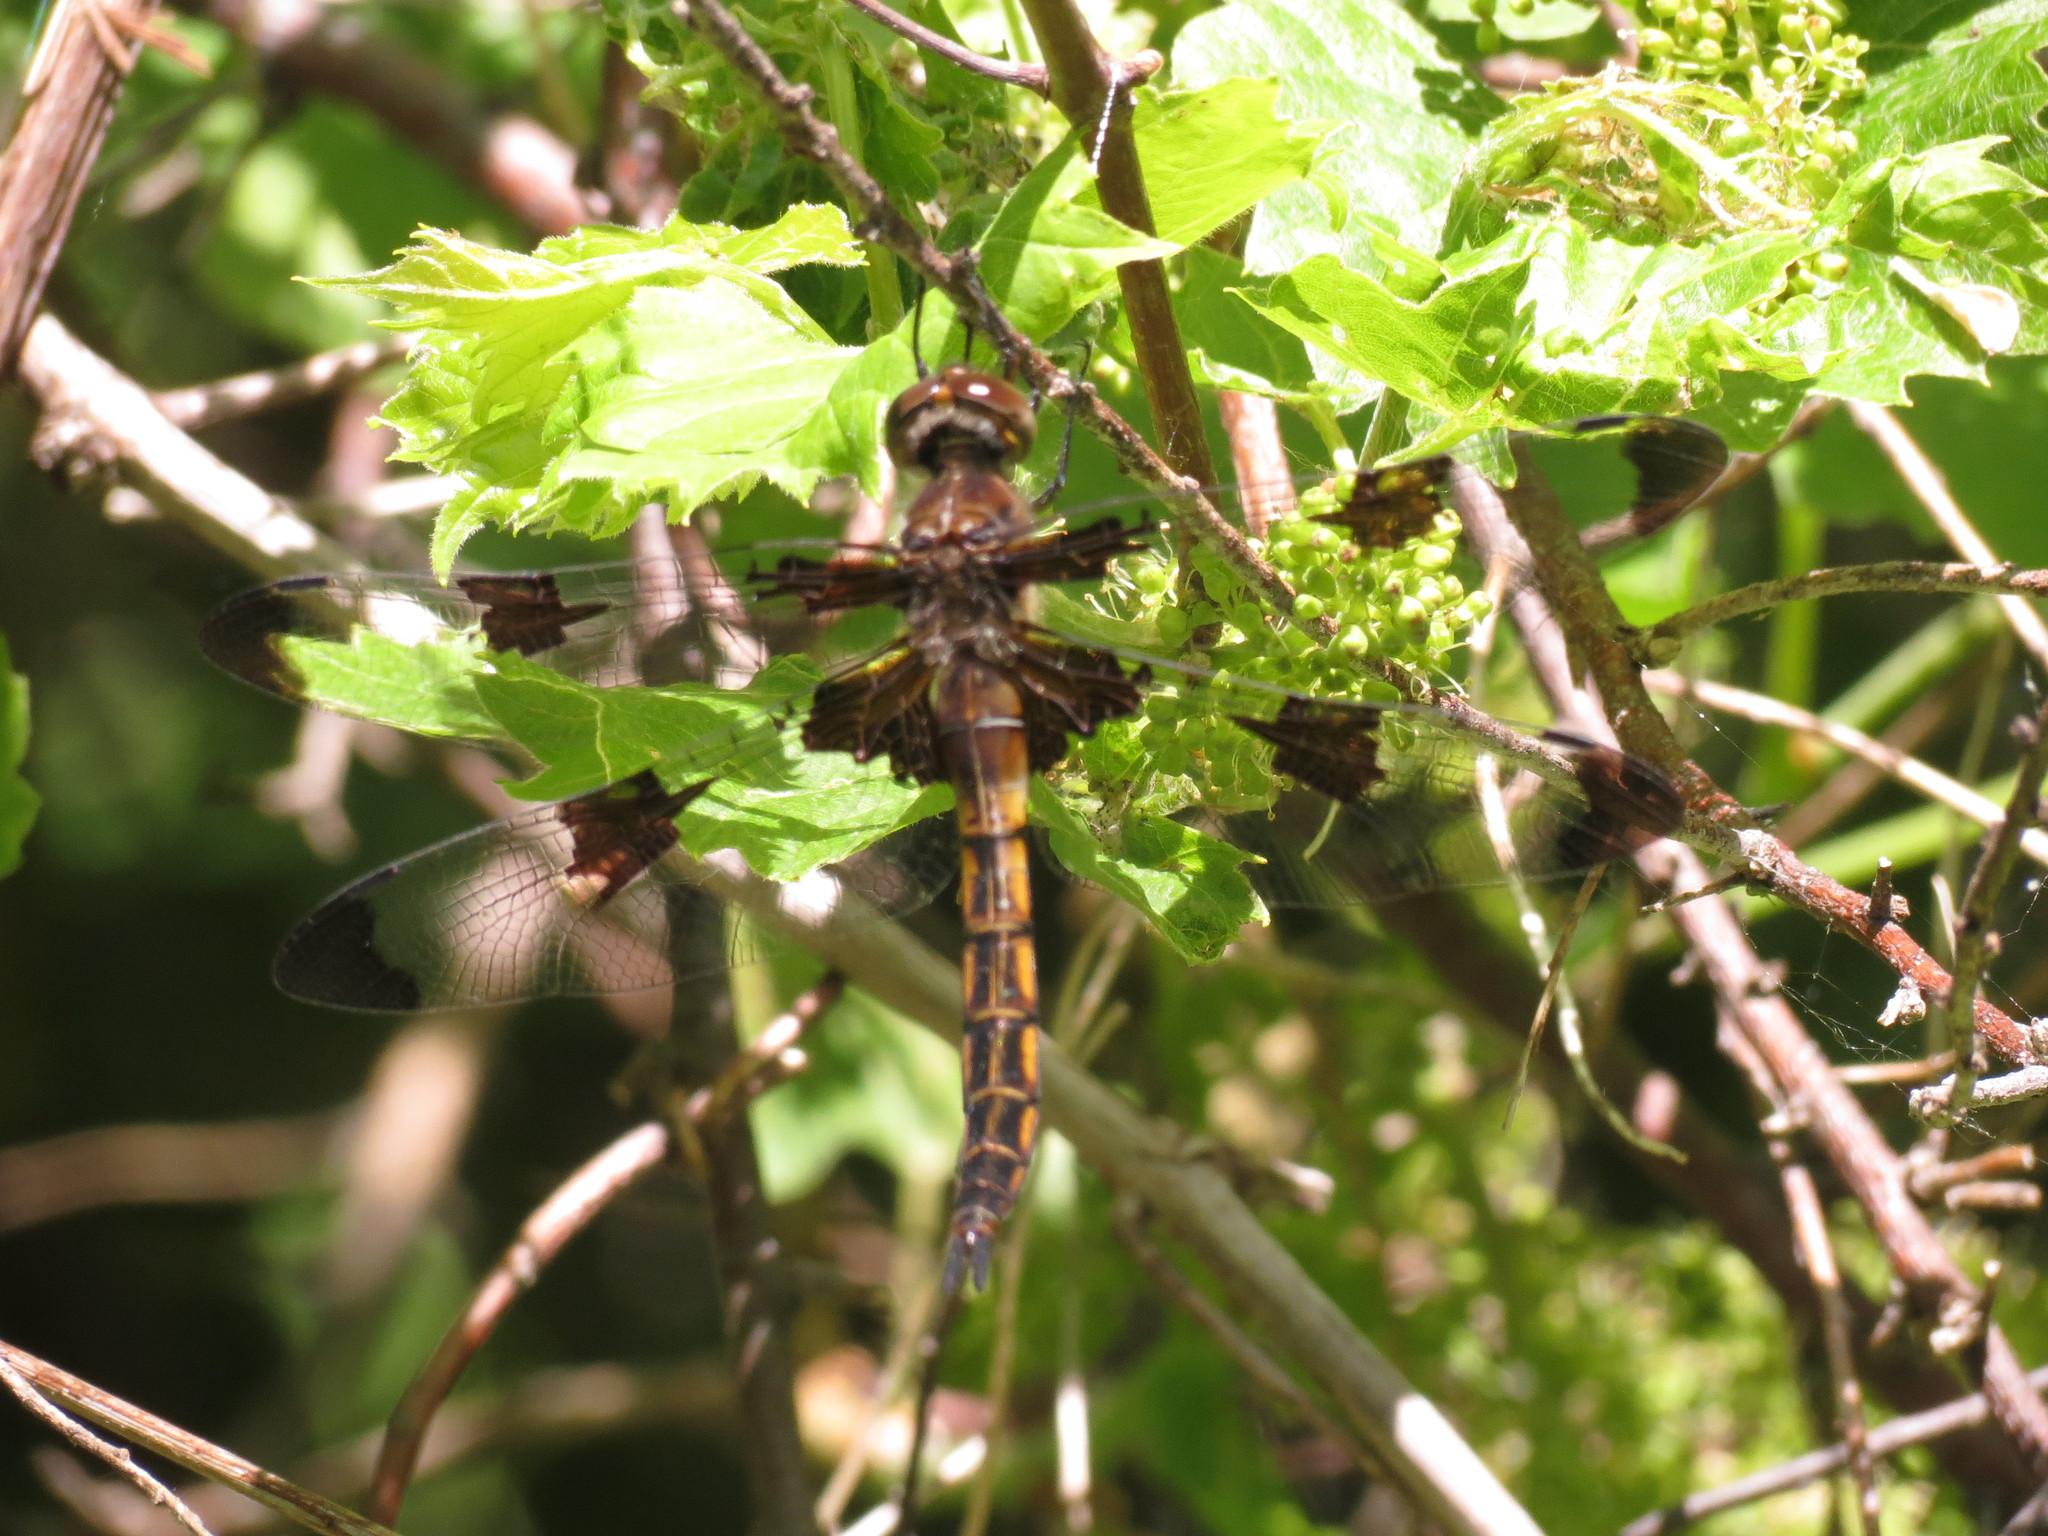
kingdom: Animalia
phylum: Arthropoda
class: Insecta
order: Odonata
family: Corduliidae
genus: Epitheca
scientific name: Epitheca princeps
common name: Prince baskettail
